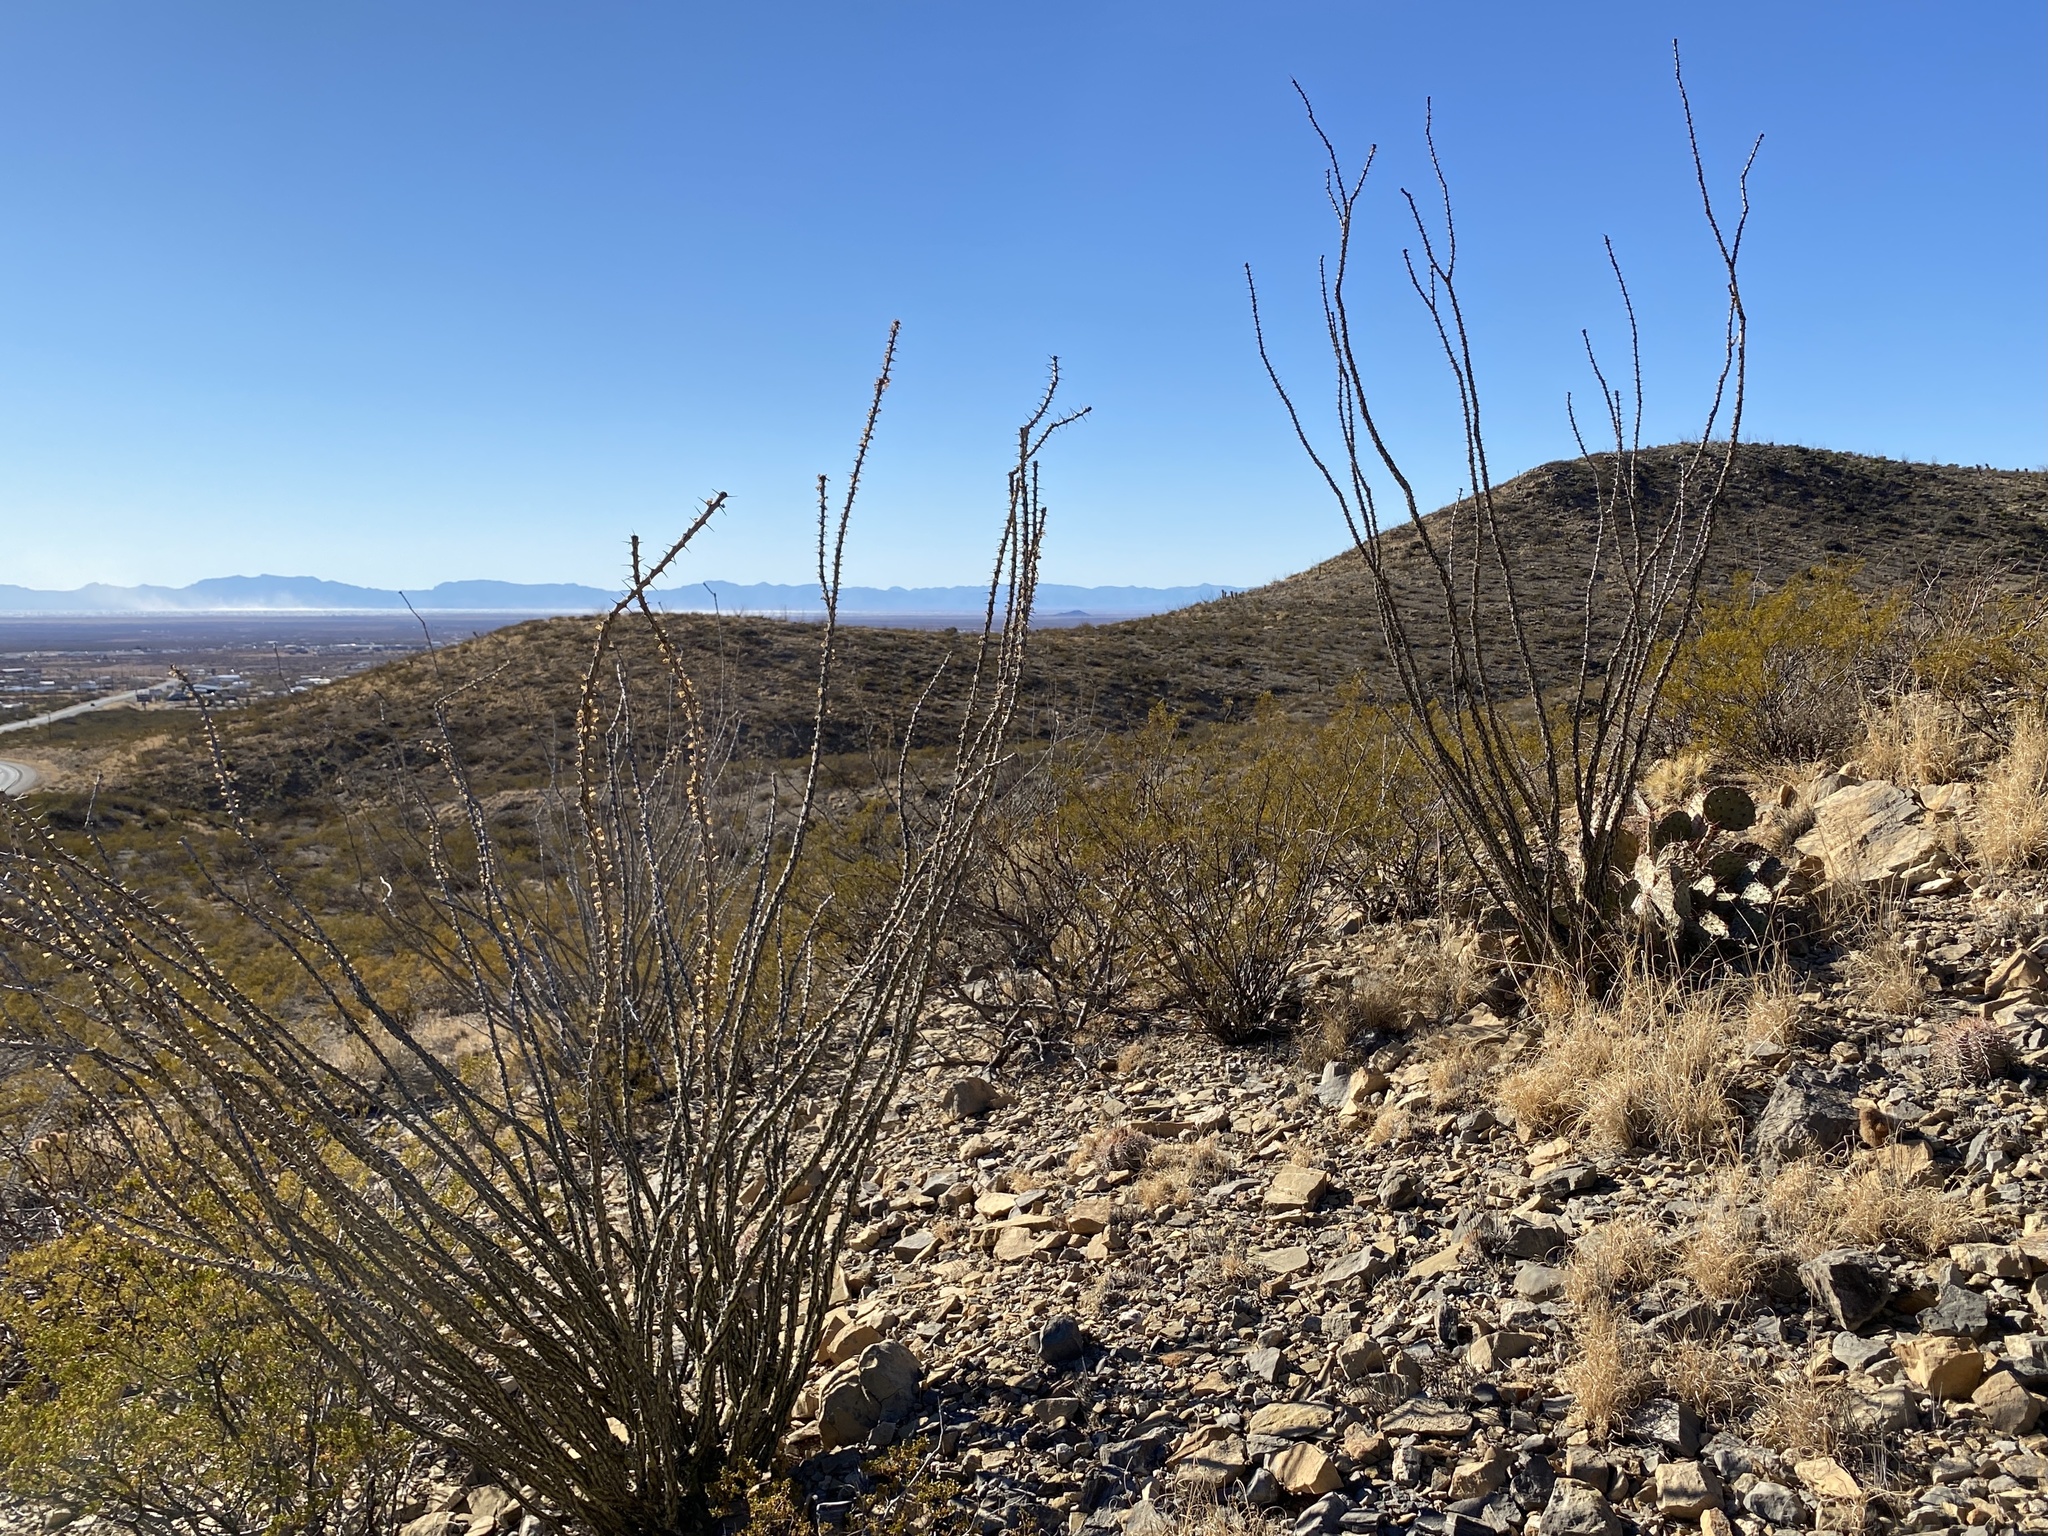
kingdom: Plantae
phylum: Tracheophyta
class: Magnoliopsida
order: Ericales
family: Fouquieriaceae
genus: Fouquieria
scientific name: Fouquieria splendens
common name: Vine-cactus
